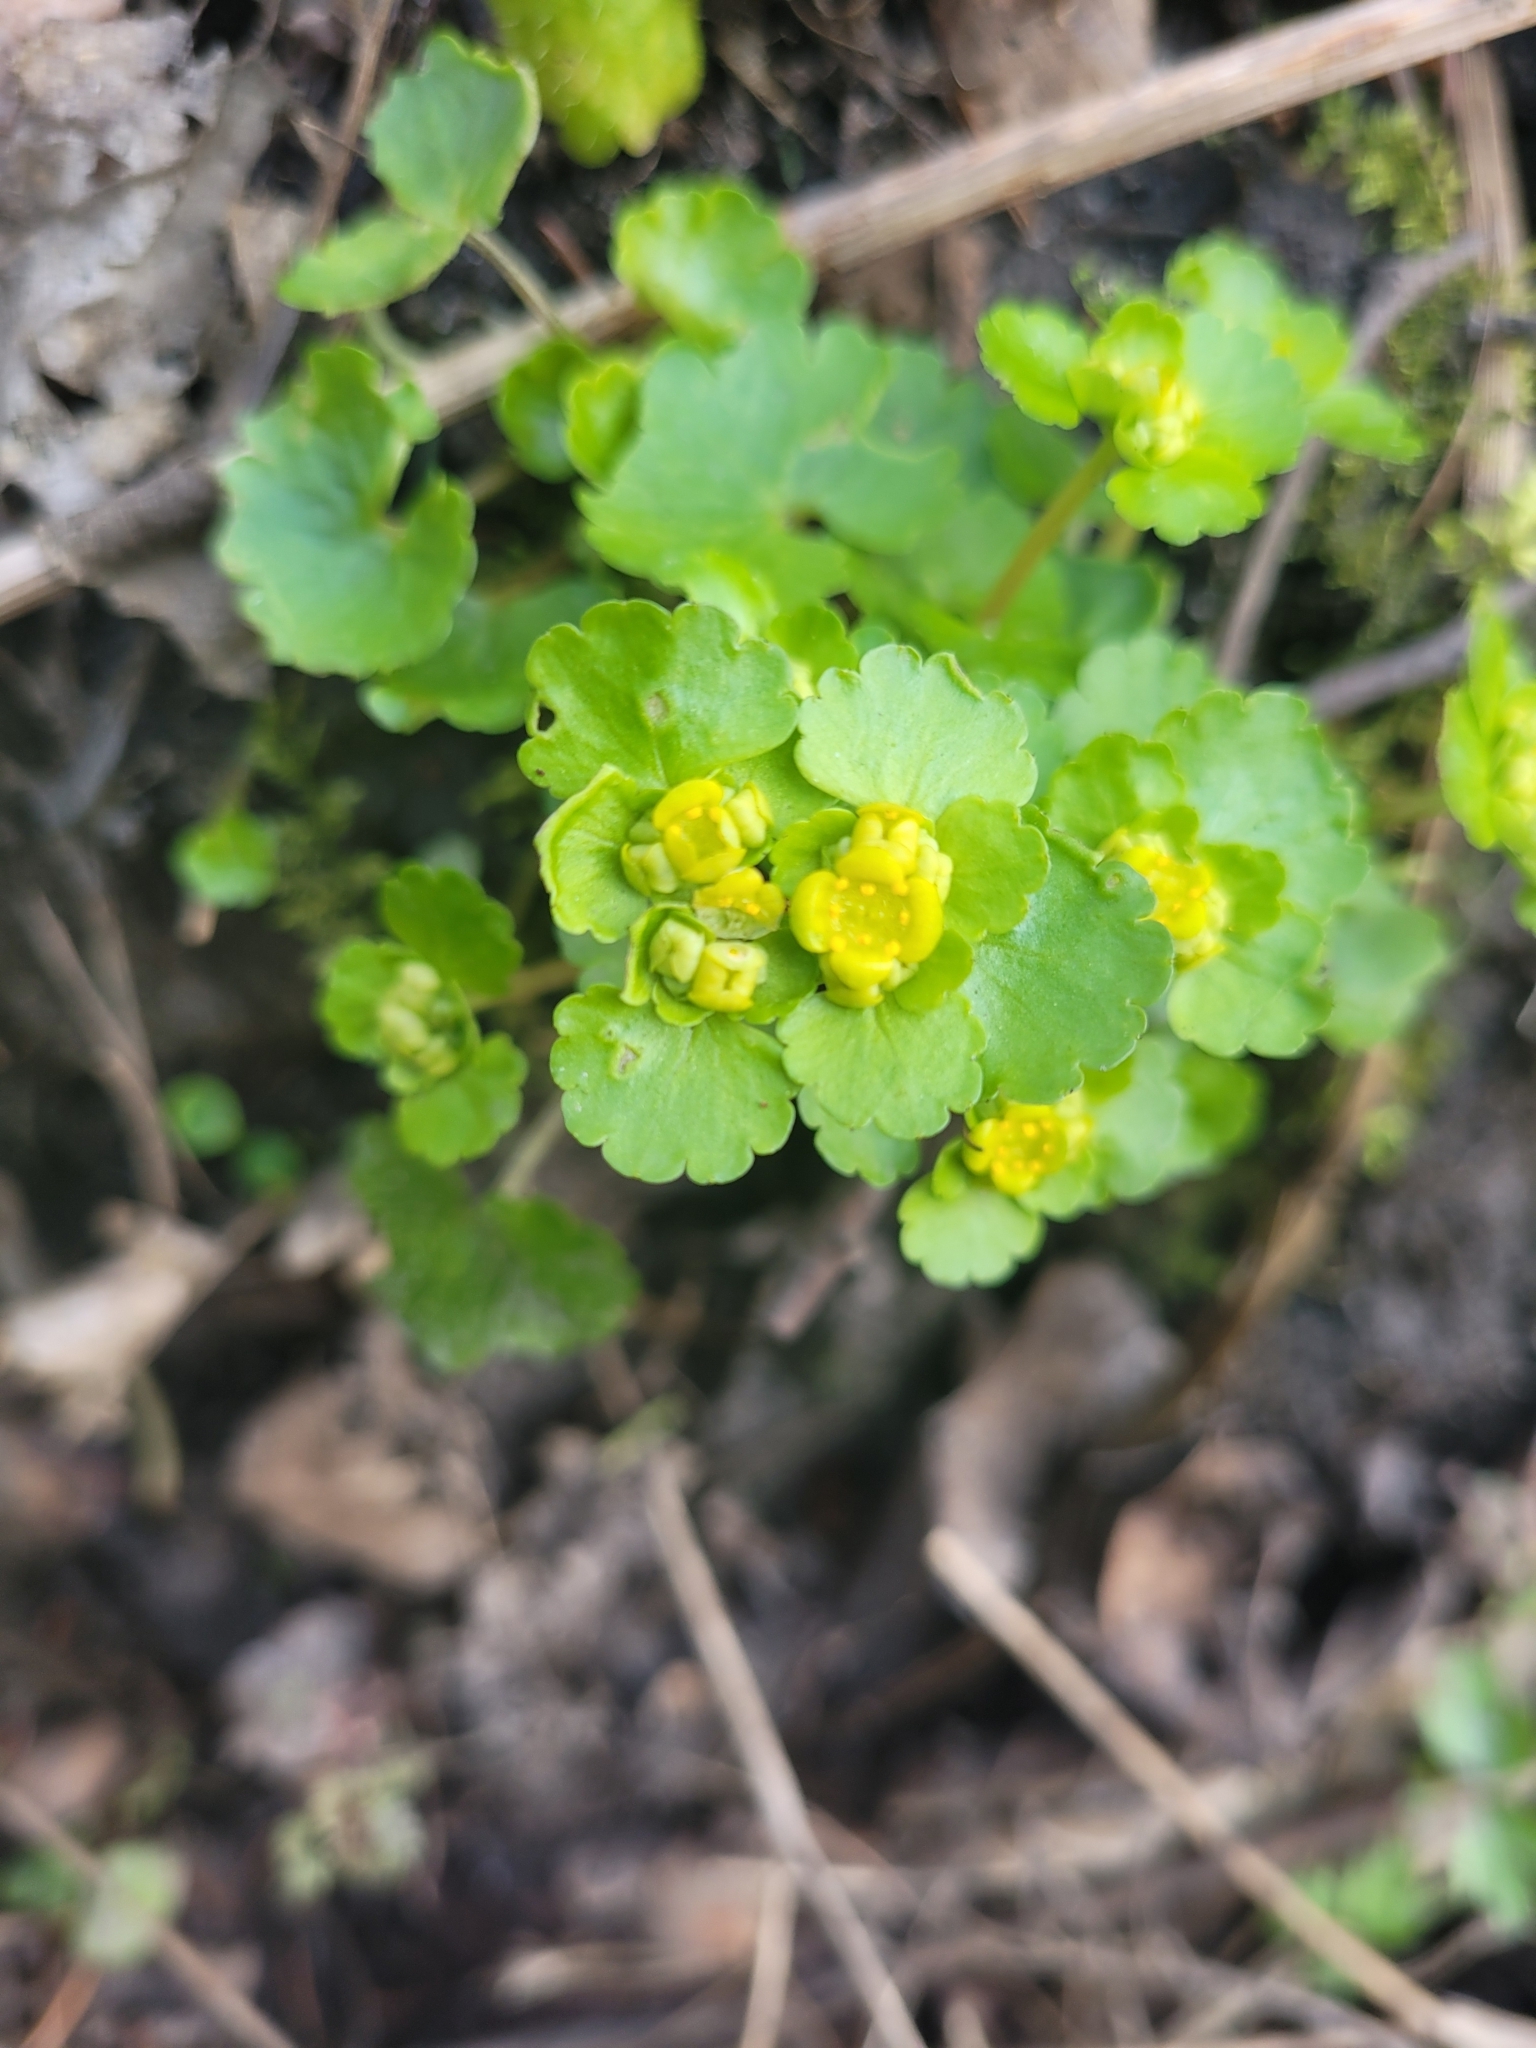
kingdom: Plantae
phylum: Tracheophyta
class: Magnoliopsida
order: Saxifragales
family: Saxifragaceae
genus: Chrysosplenium
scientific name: Chrysosplenium alternifolium
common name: Alternate-leaved golden-saxifrage
